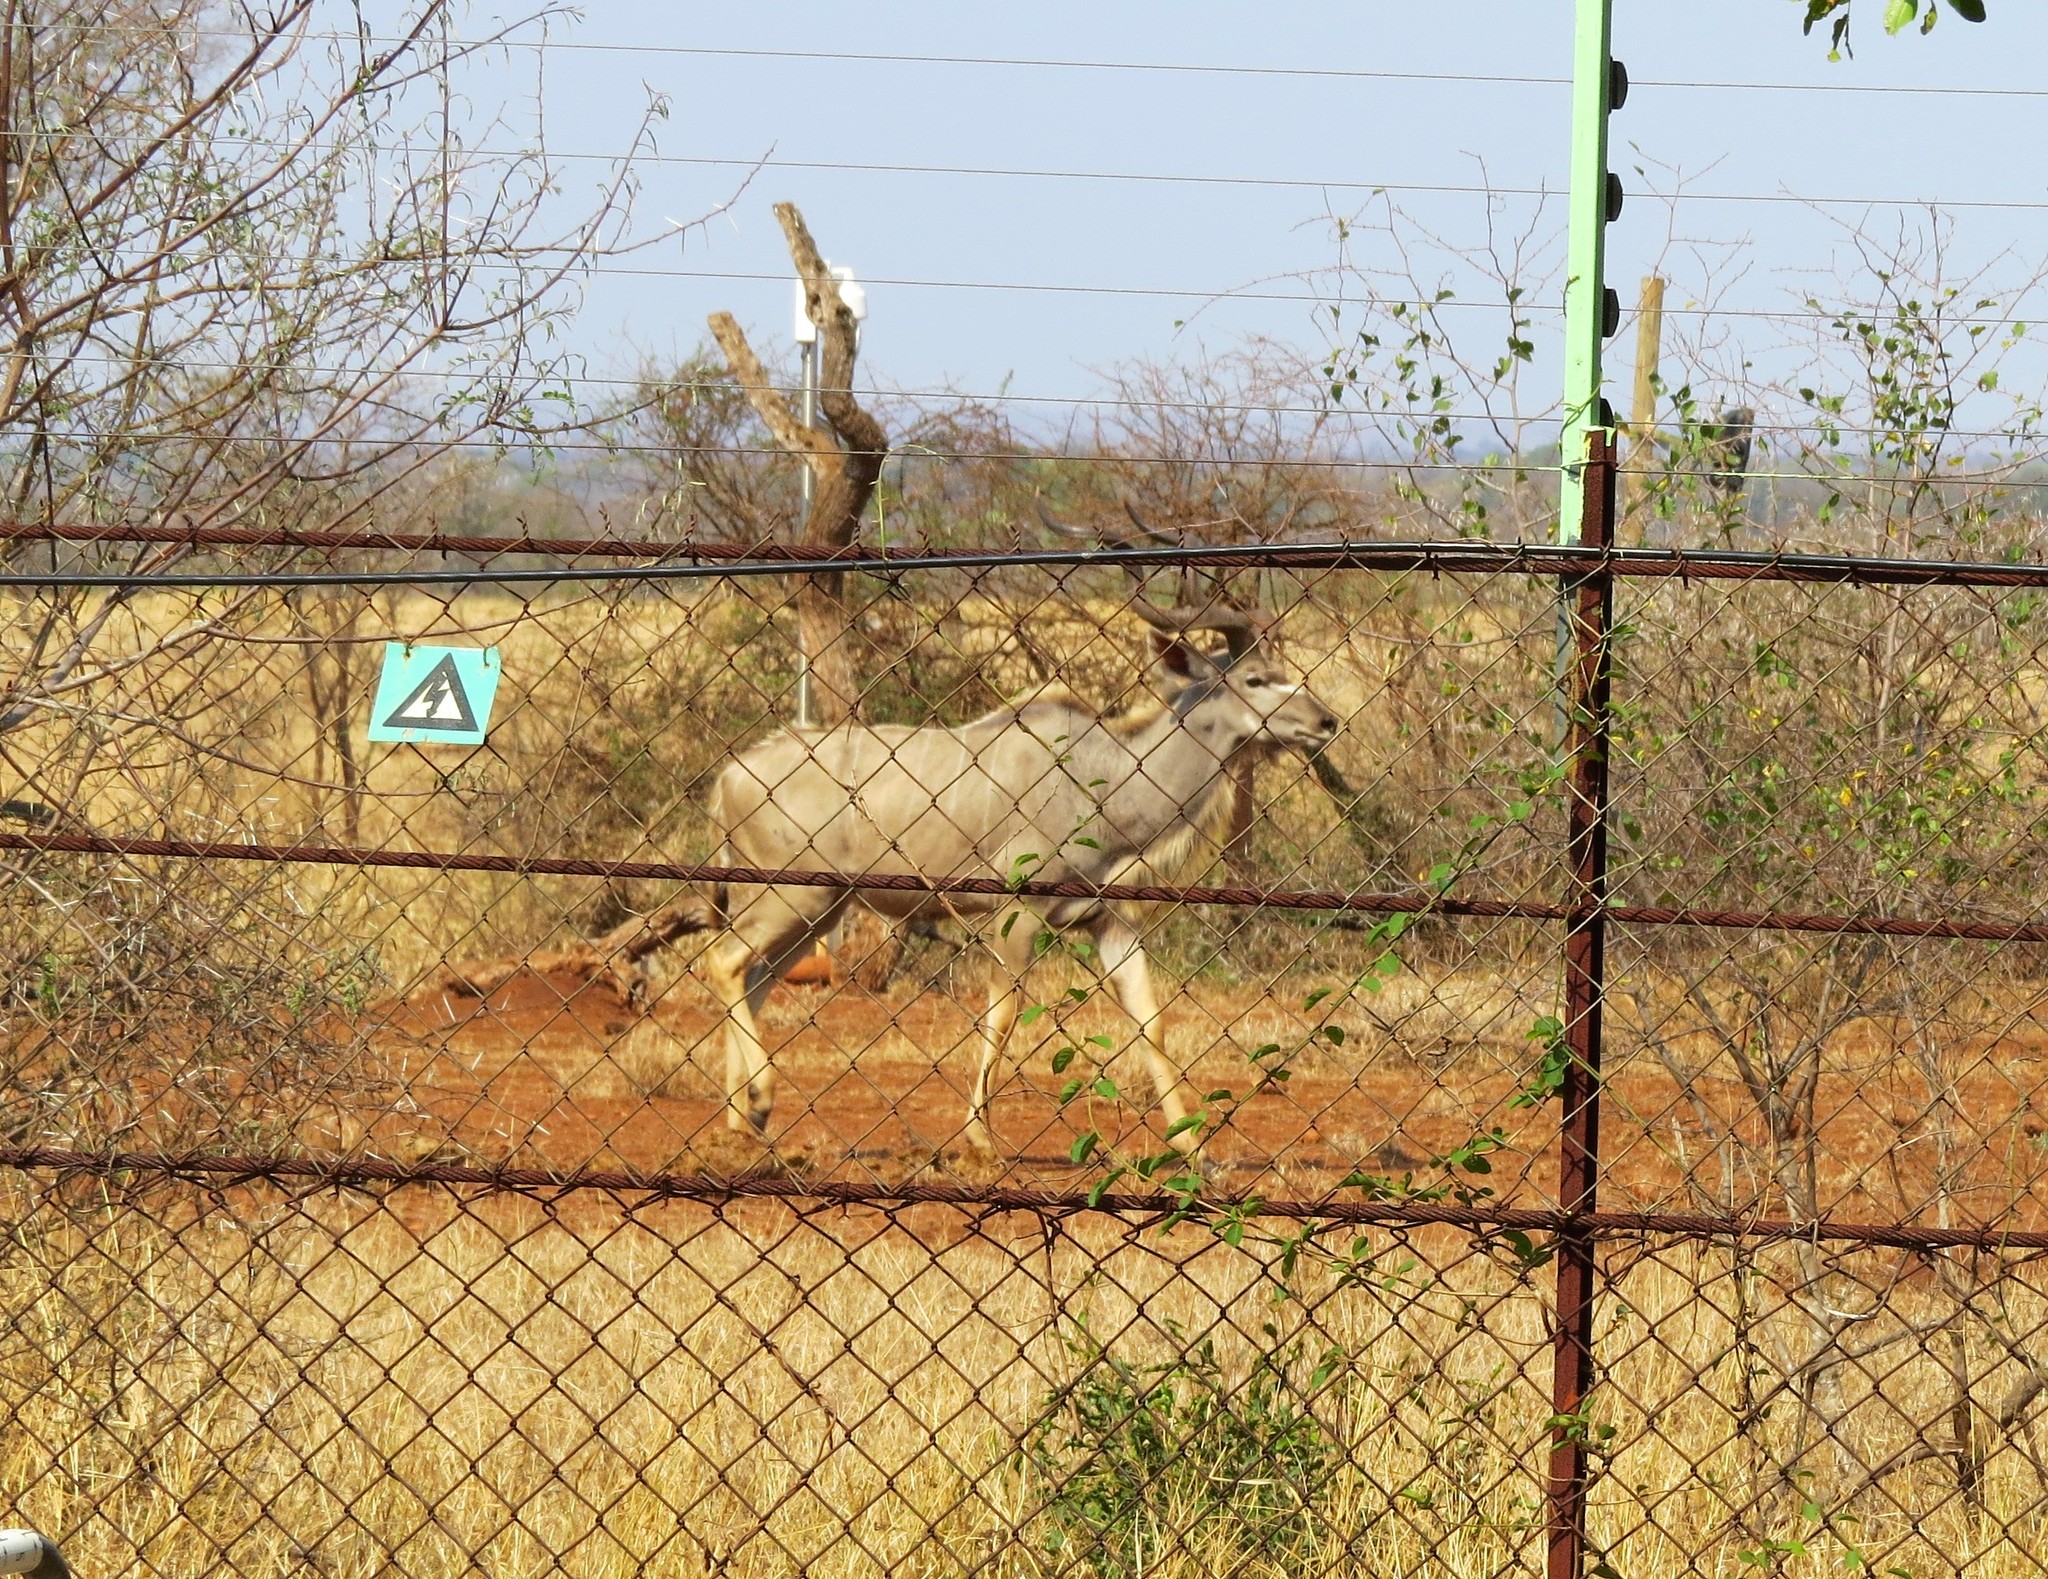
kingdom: Animalia
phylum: Chordata
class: Mammalia
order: Artiodactyla
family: Bovidae
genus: Tragelaphus
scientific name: Tragelaphus strepsiceros
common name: Greater kudu
